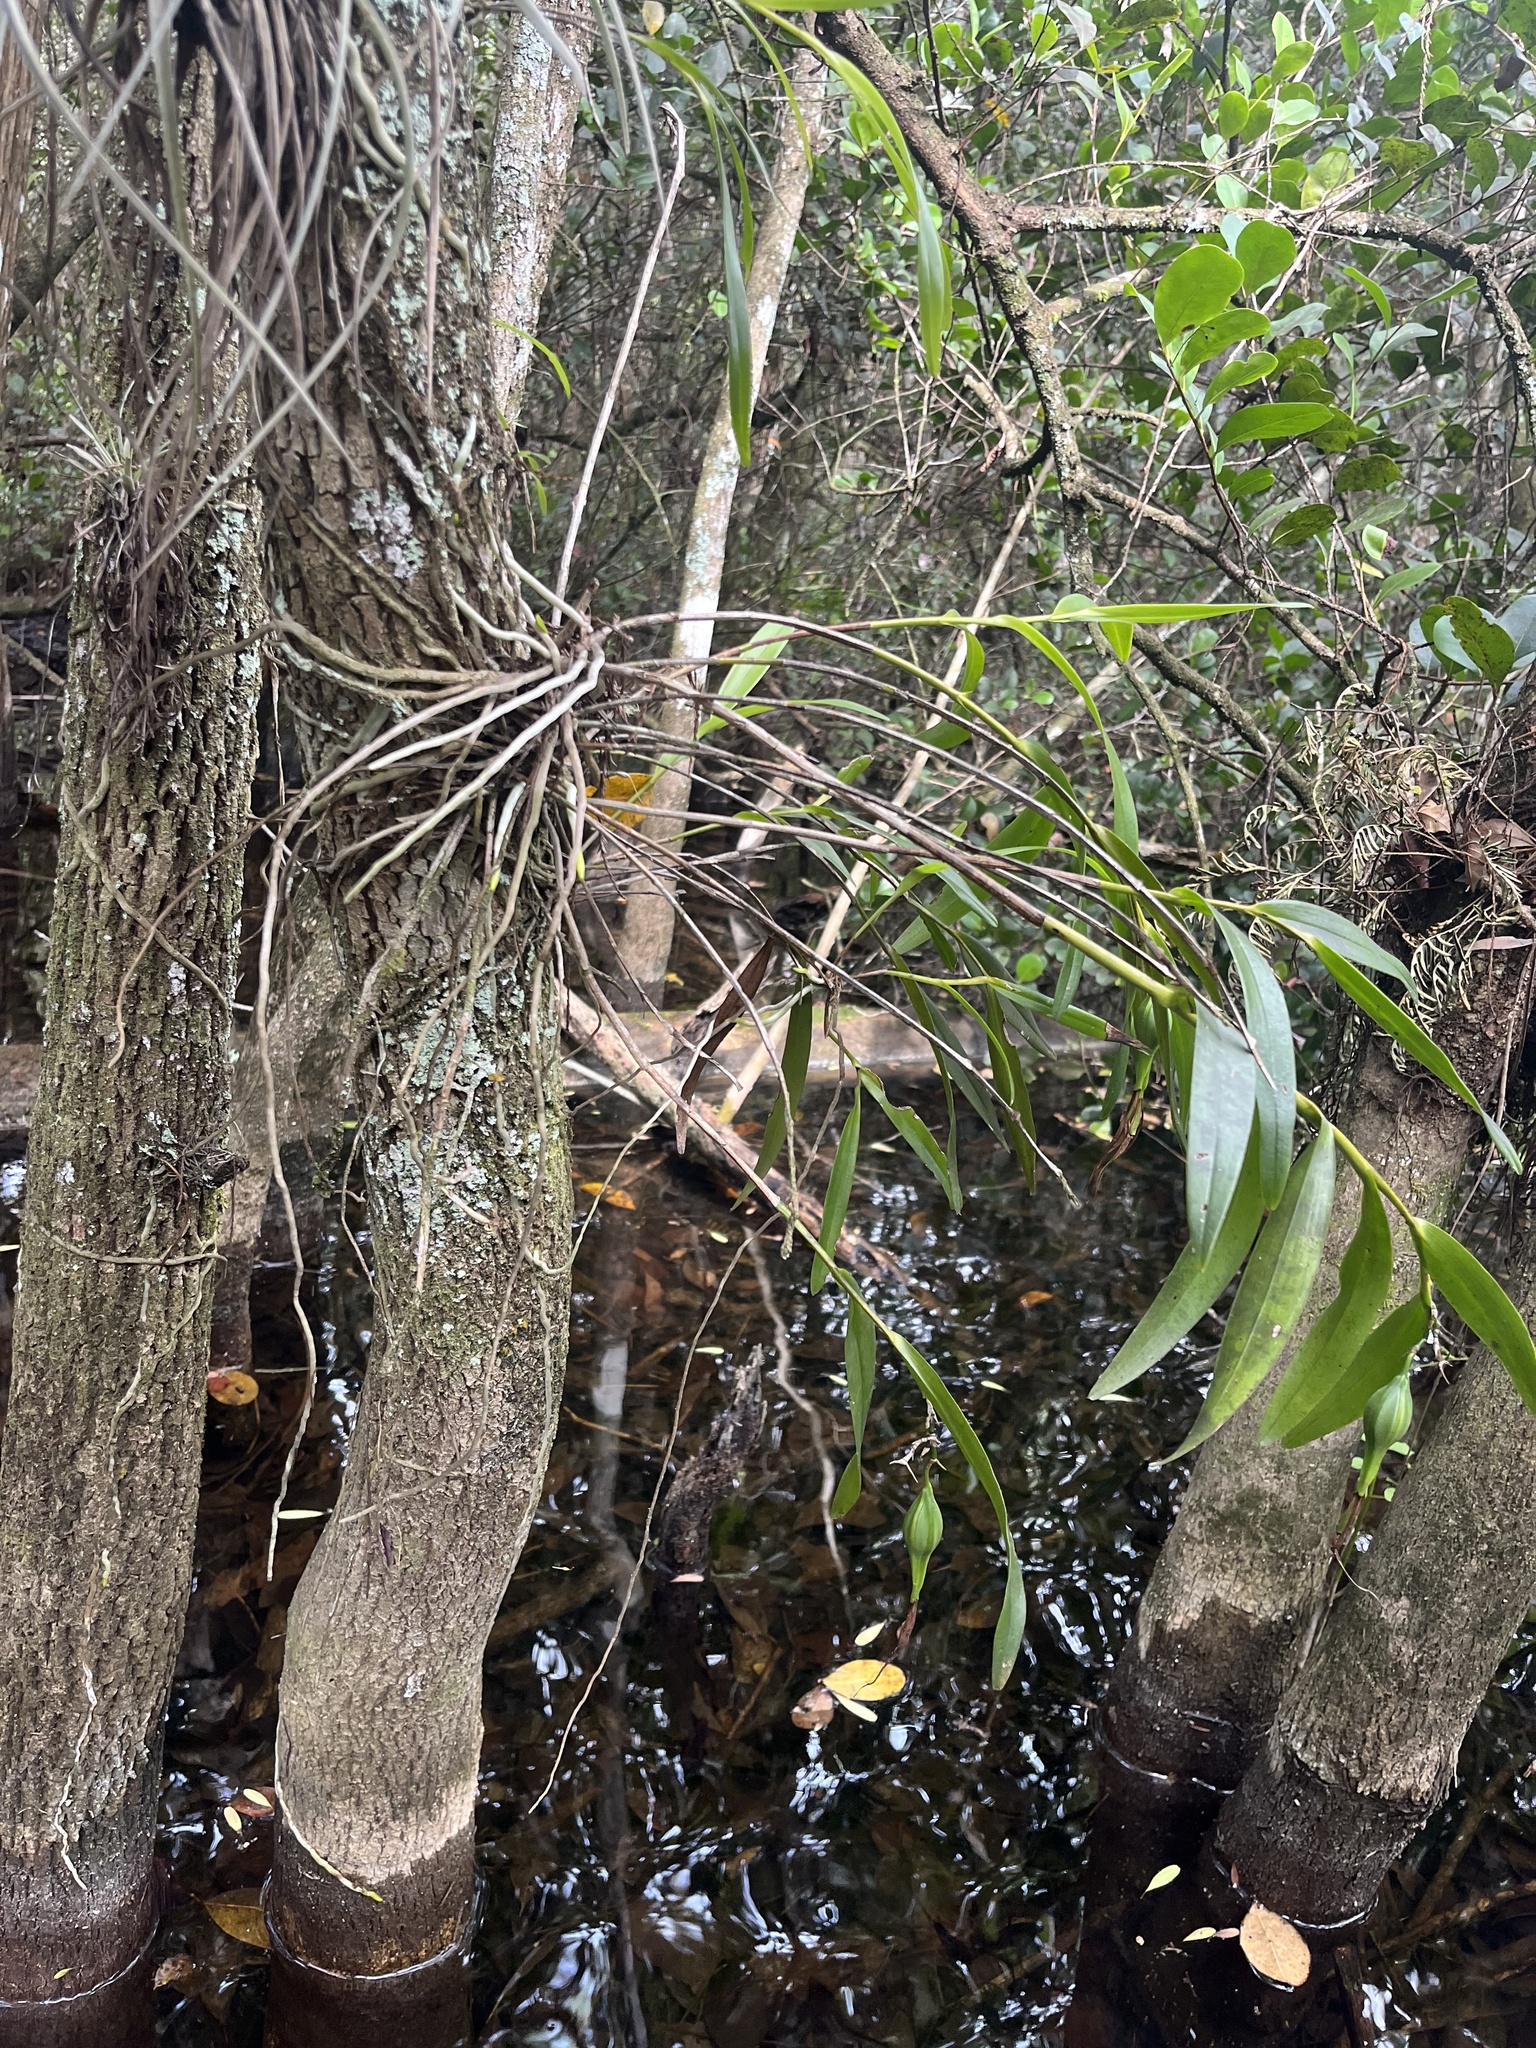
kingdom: Plantae
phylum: Tracheophyta
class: Liliopsida
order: Asparagales
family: Orchidaceae
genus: Epidendrum
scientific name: Epidendrum nocturnum
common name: Night scented orchid
